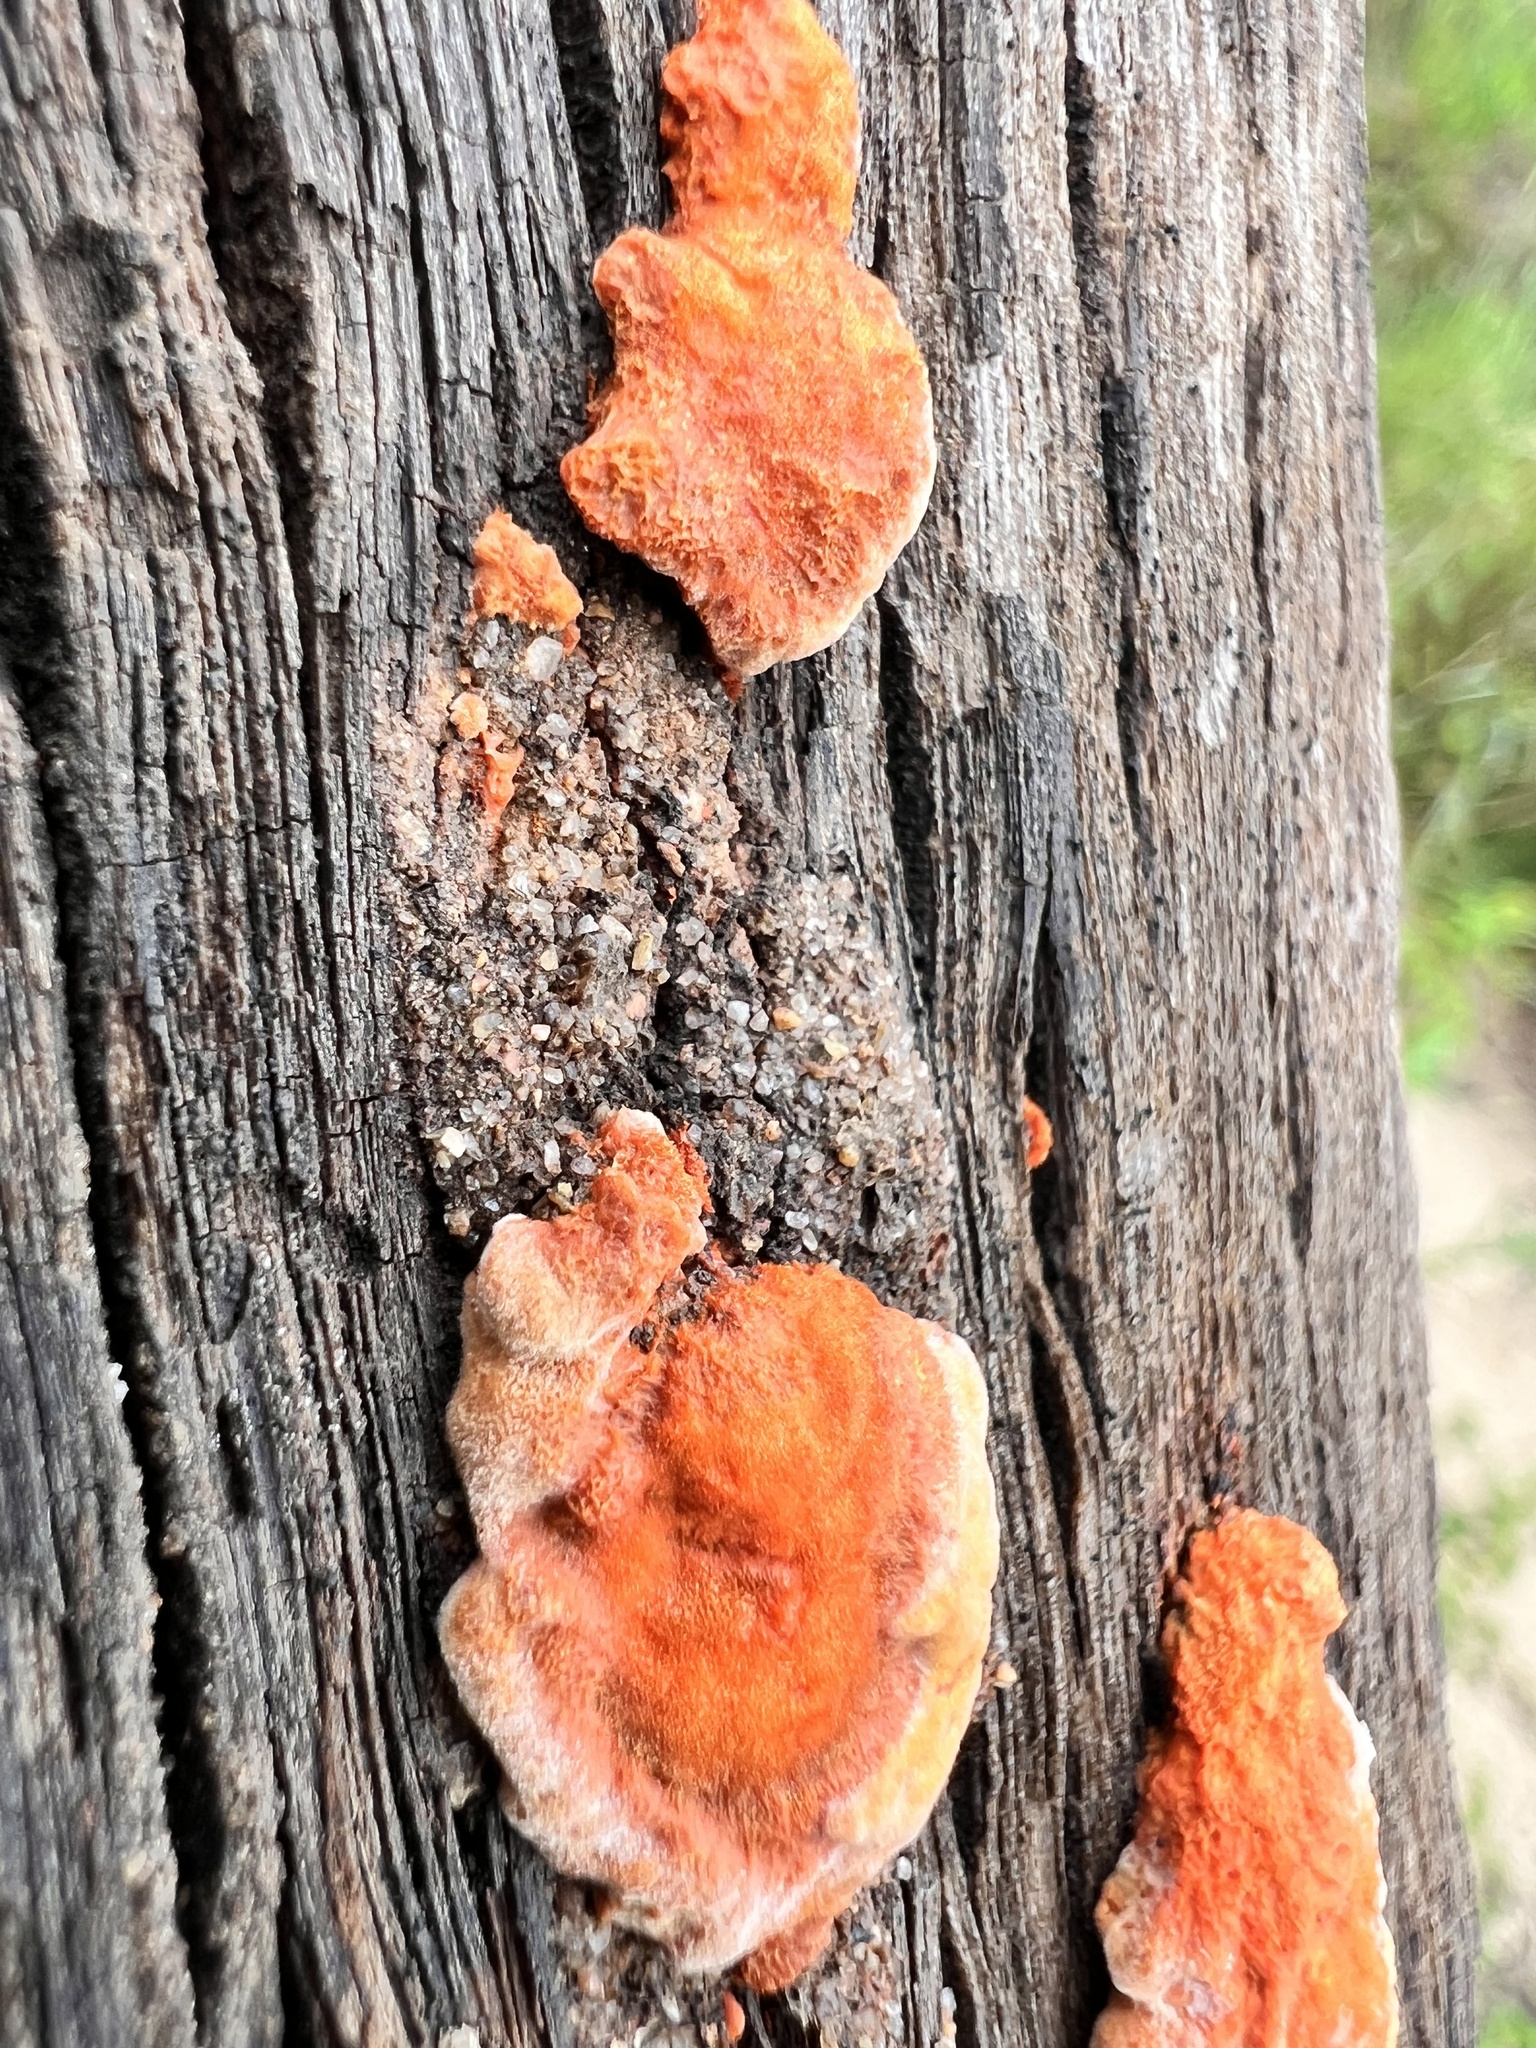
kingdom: Fungi
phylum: Basidiomycota
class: Agaricomycetes
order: Polyporales
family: Polyporaceae
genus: Trametes
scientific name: Trametes coccinea
